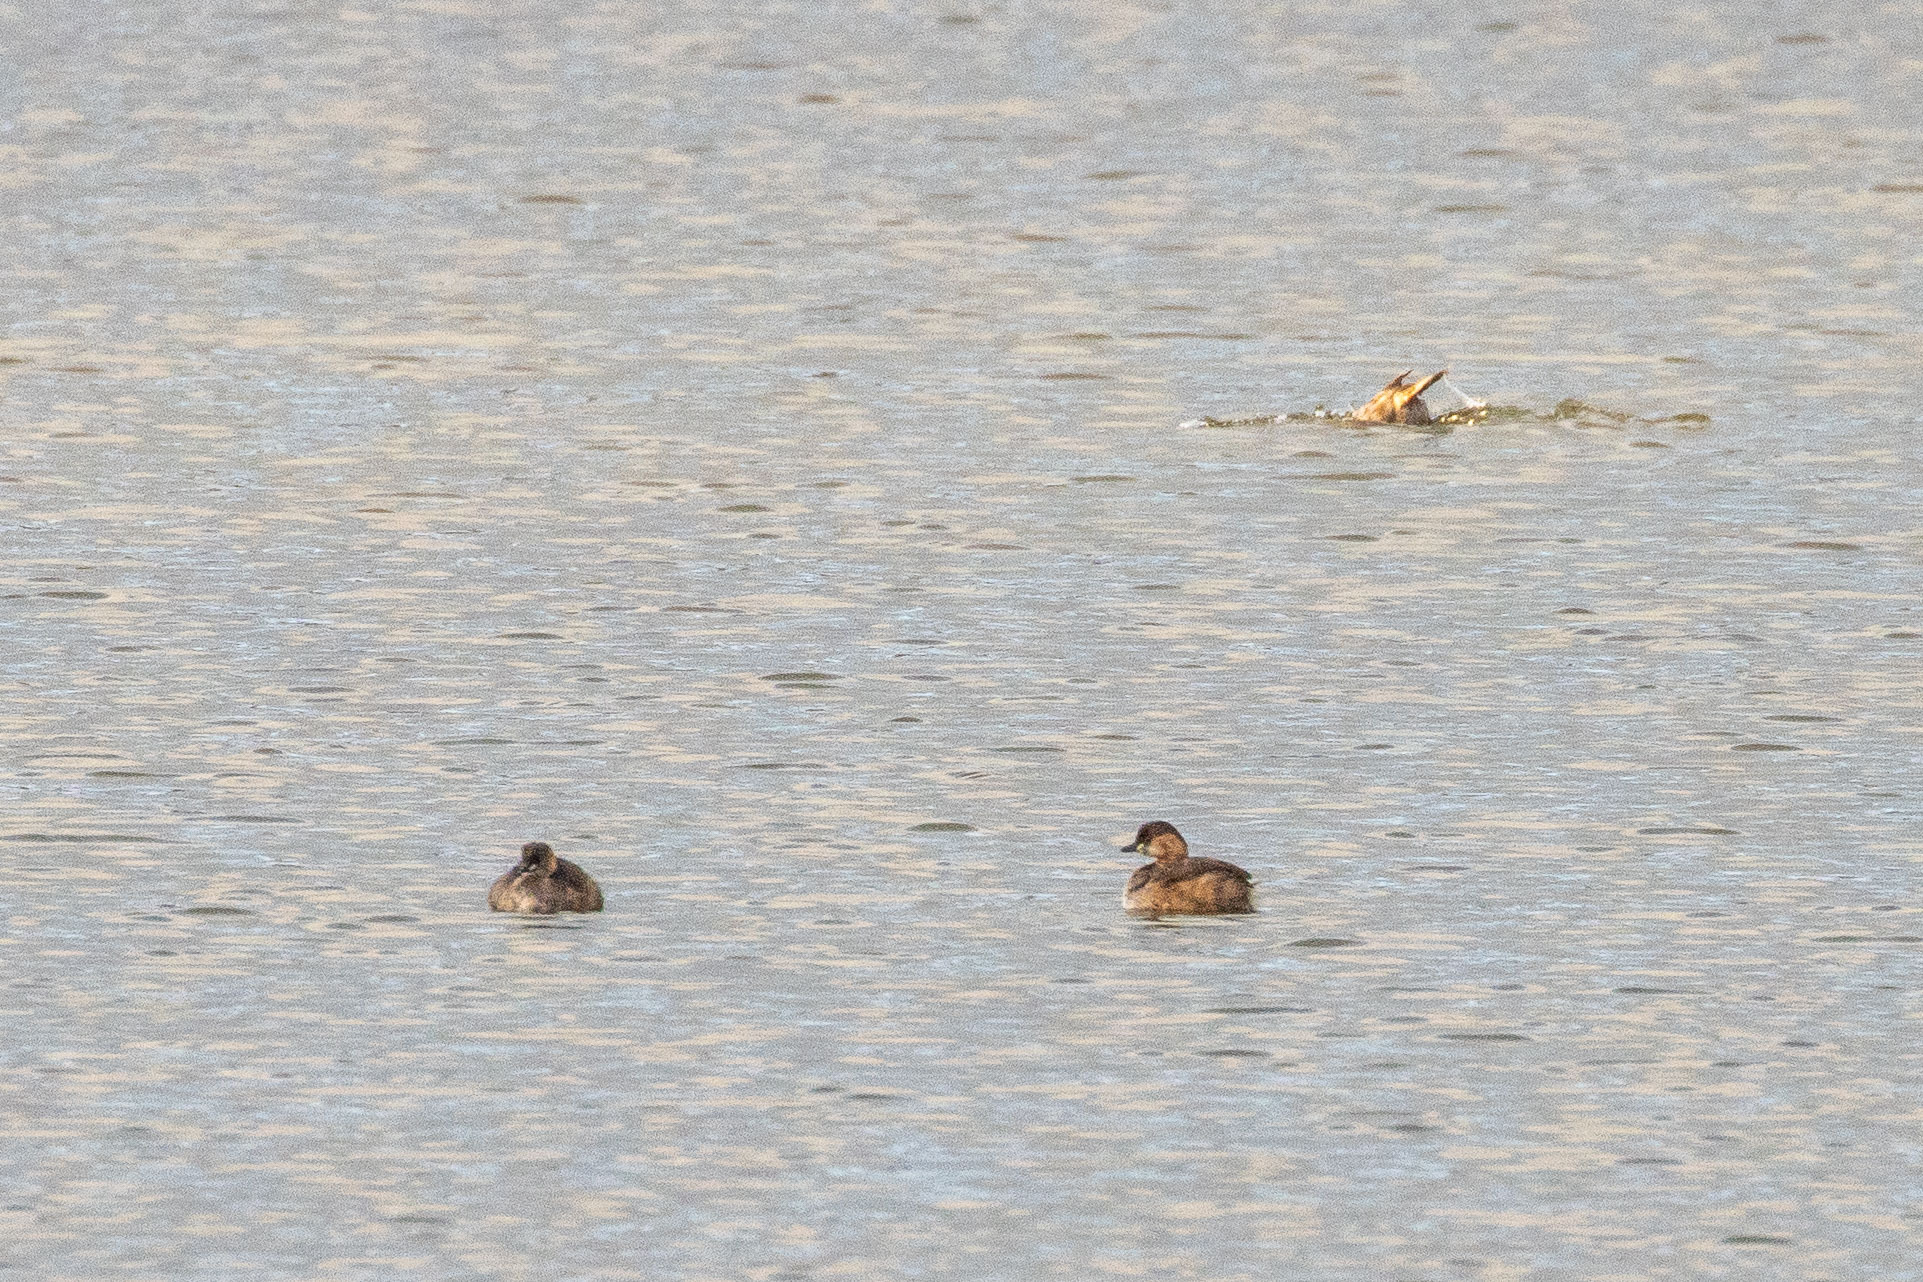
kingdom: Animalia
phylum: Chordata
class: Aves
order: Podicipediformes
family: Podicipedidae
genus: Tachybaptus
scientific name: Tachybaptus ruficollis
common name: Little grebe
